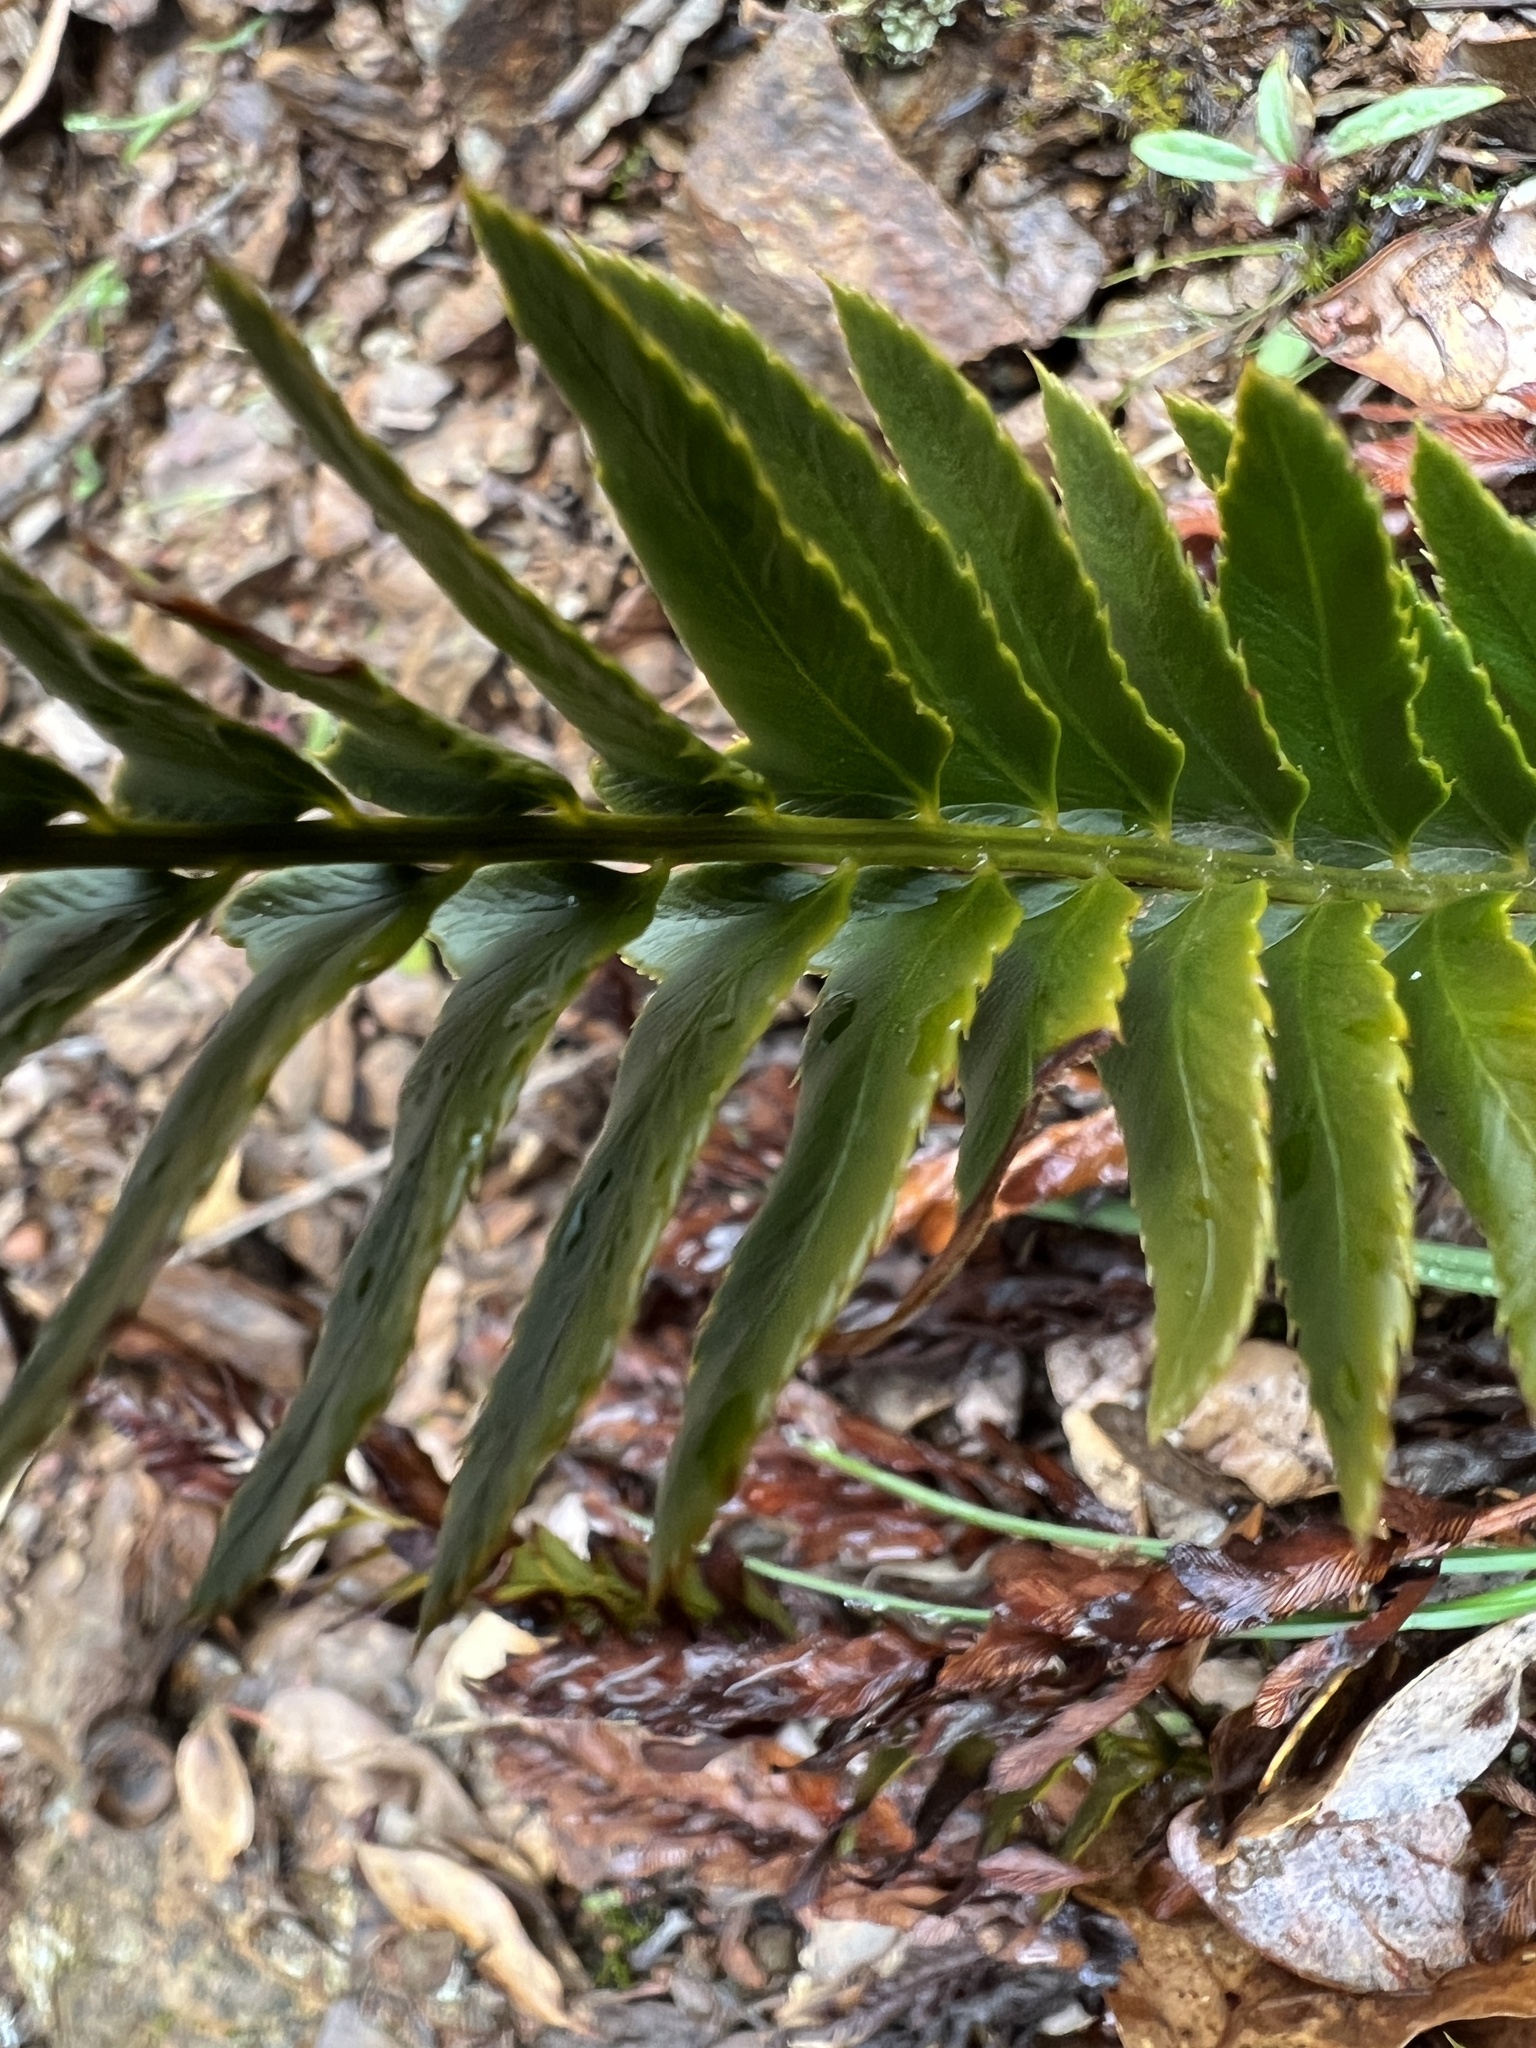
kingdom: Plantae
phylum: Tracheophyta
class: Polypodiopsida
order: Polypodiales
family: Dryopteridaceae
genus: Polystichum
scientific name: Polystichum imbricans
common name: Dwarf western sword fern
